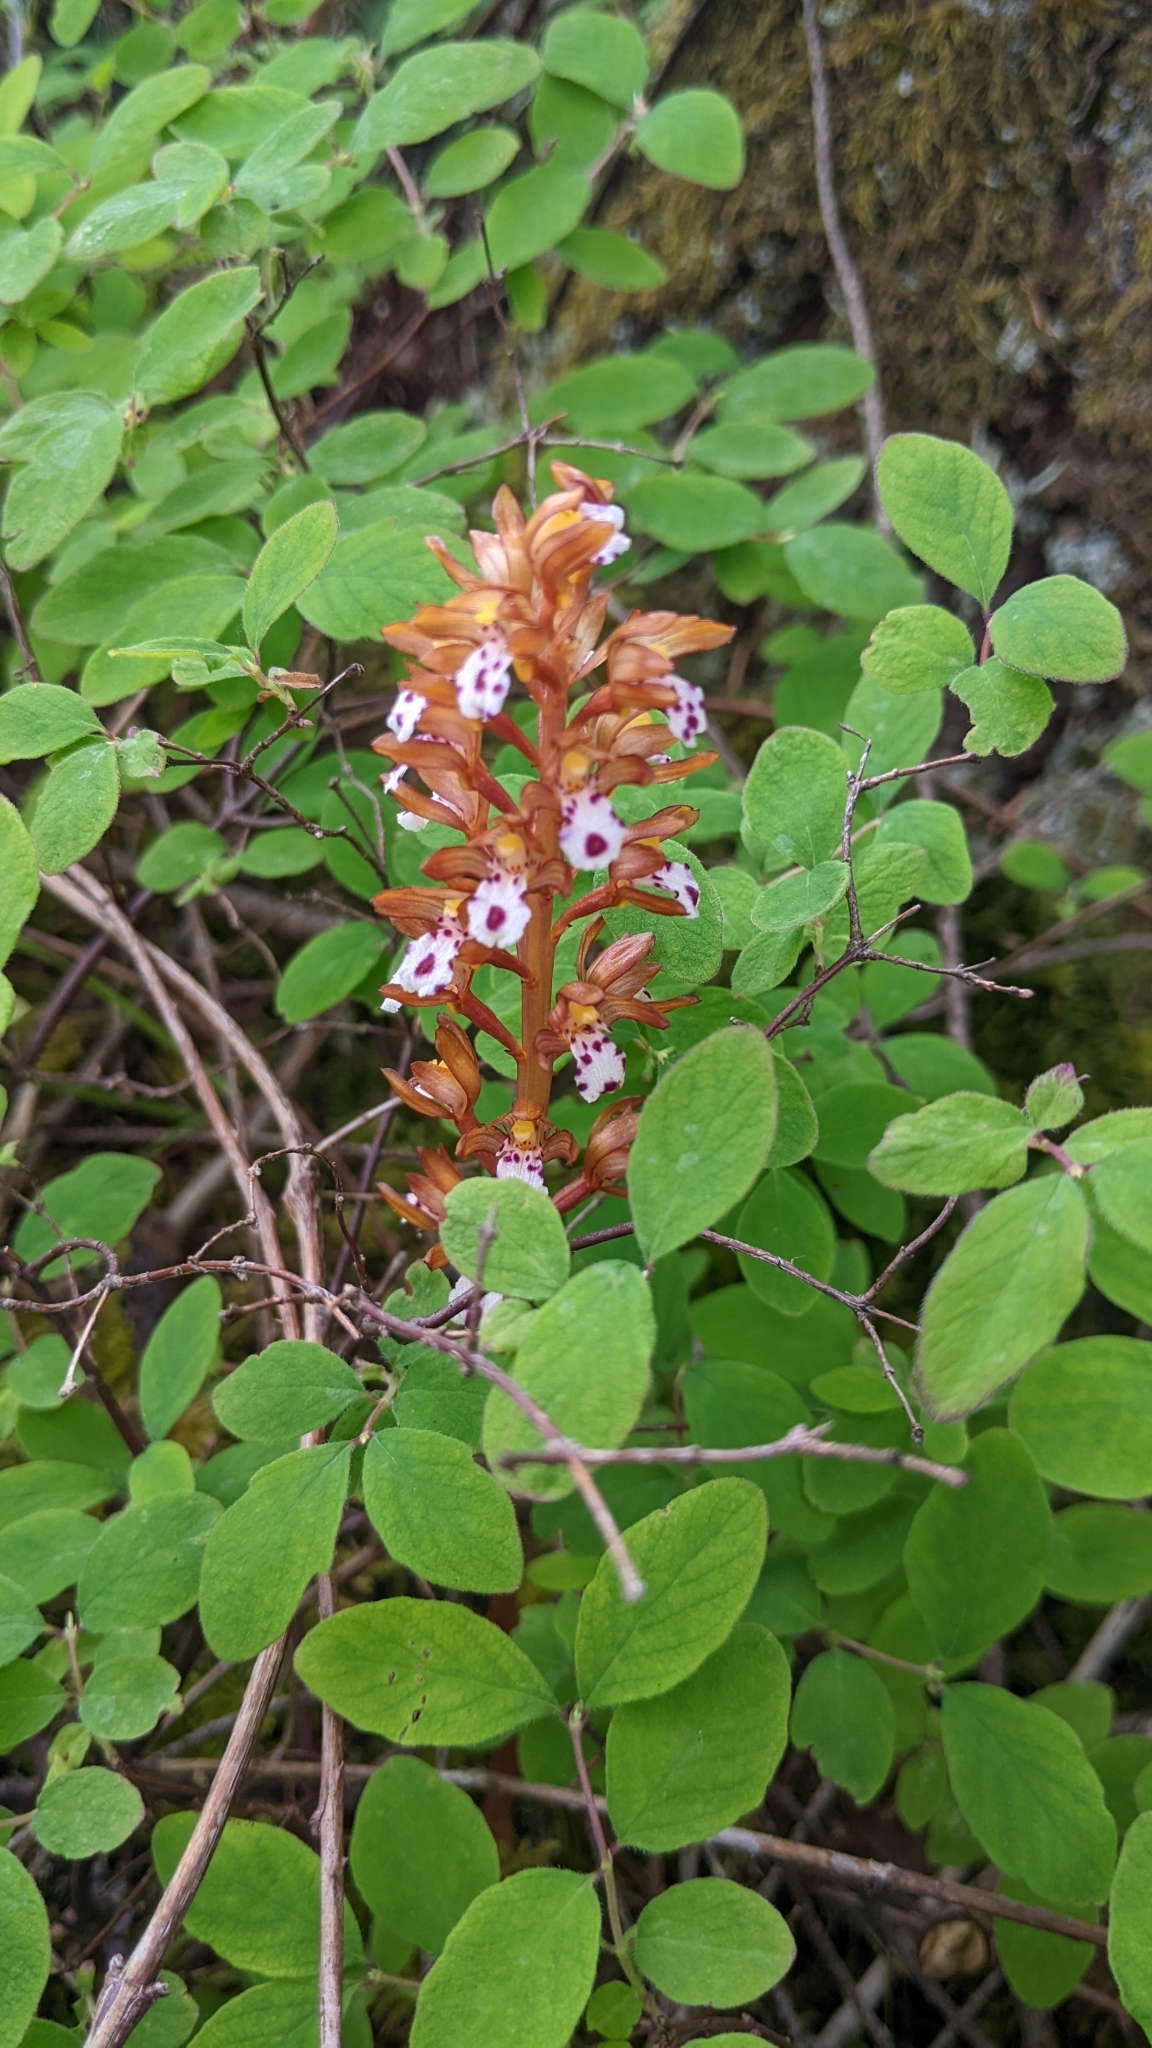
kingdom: Plantae
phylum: Tracheophyta
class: Liliopsida
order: Asparagales
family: Orchidaceae
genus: Corallorhiza
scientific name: Corallorhiza maculata
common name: Spotted coralroot
